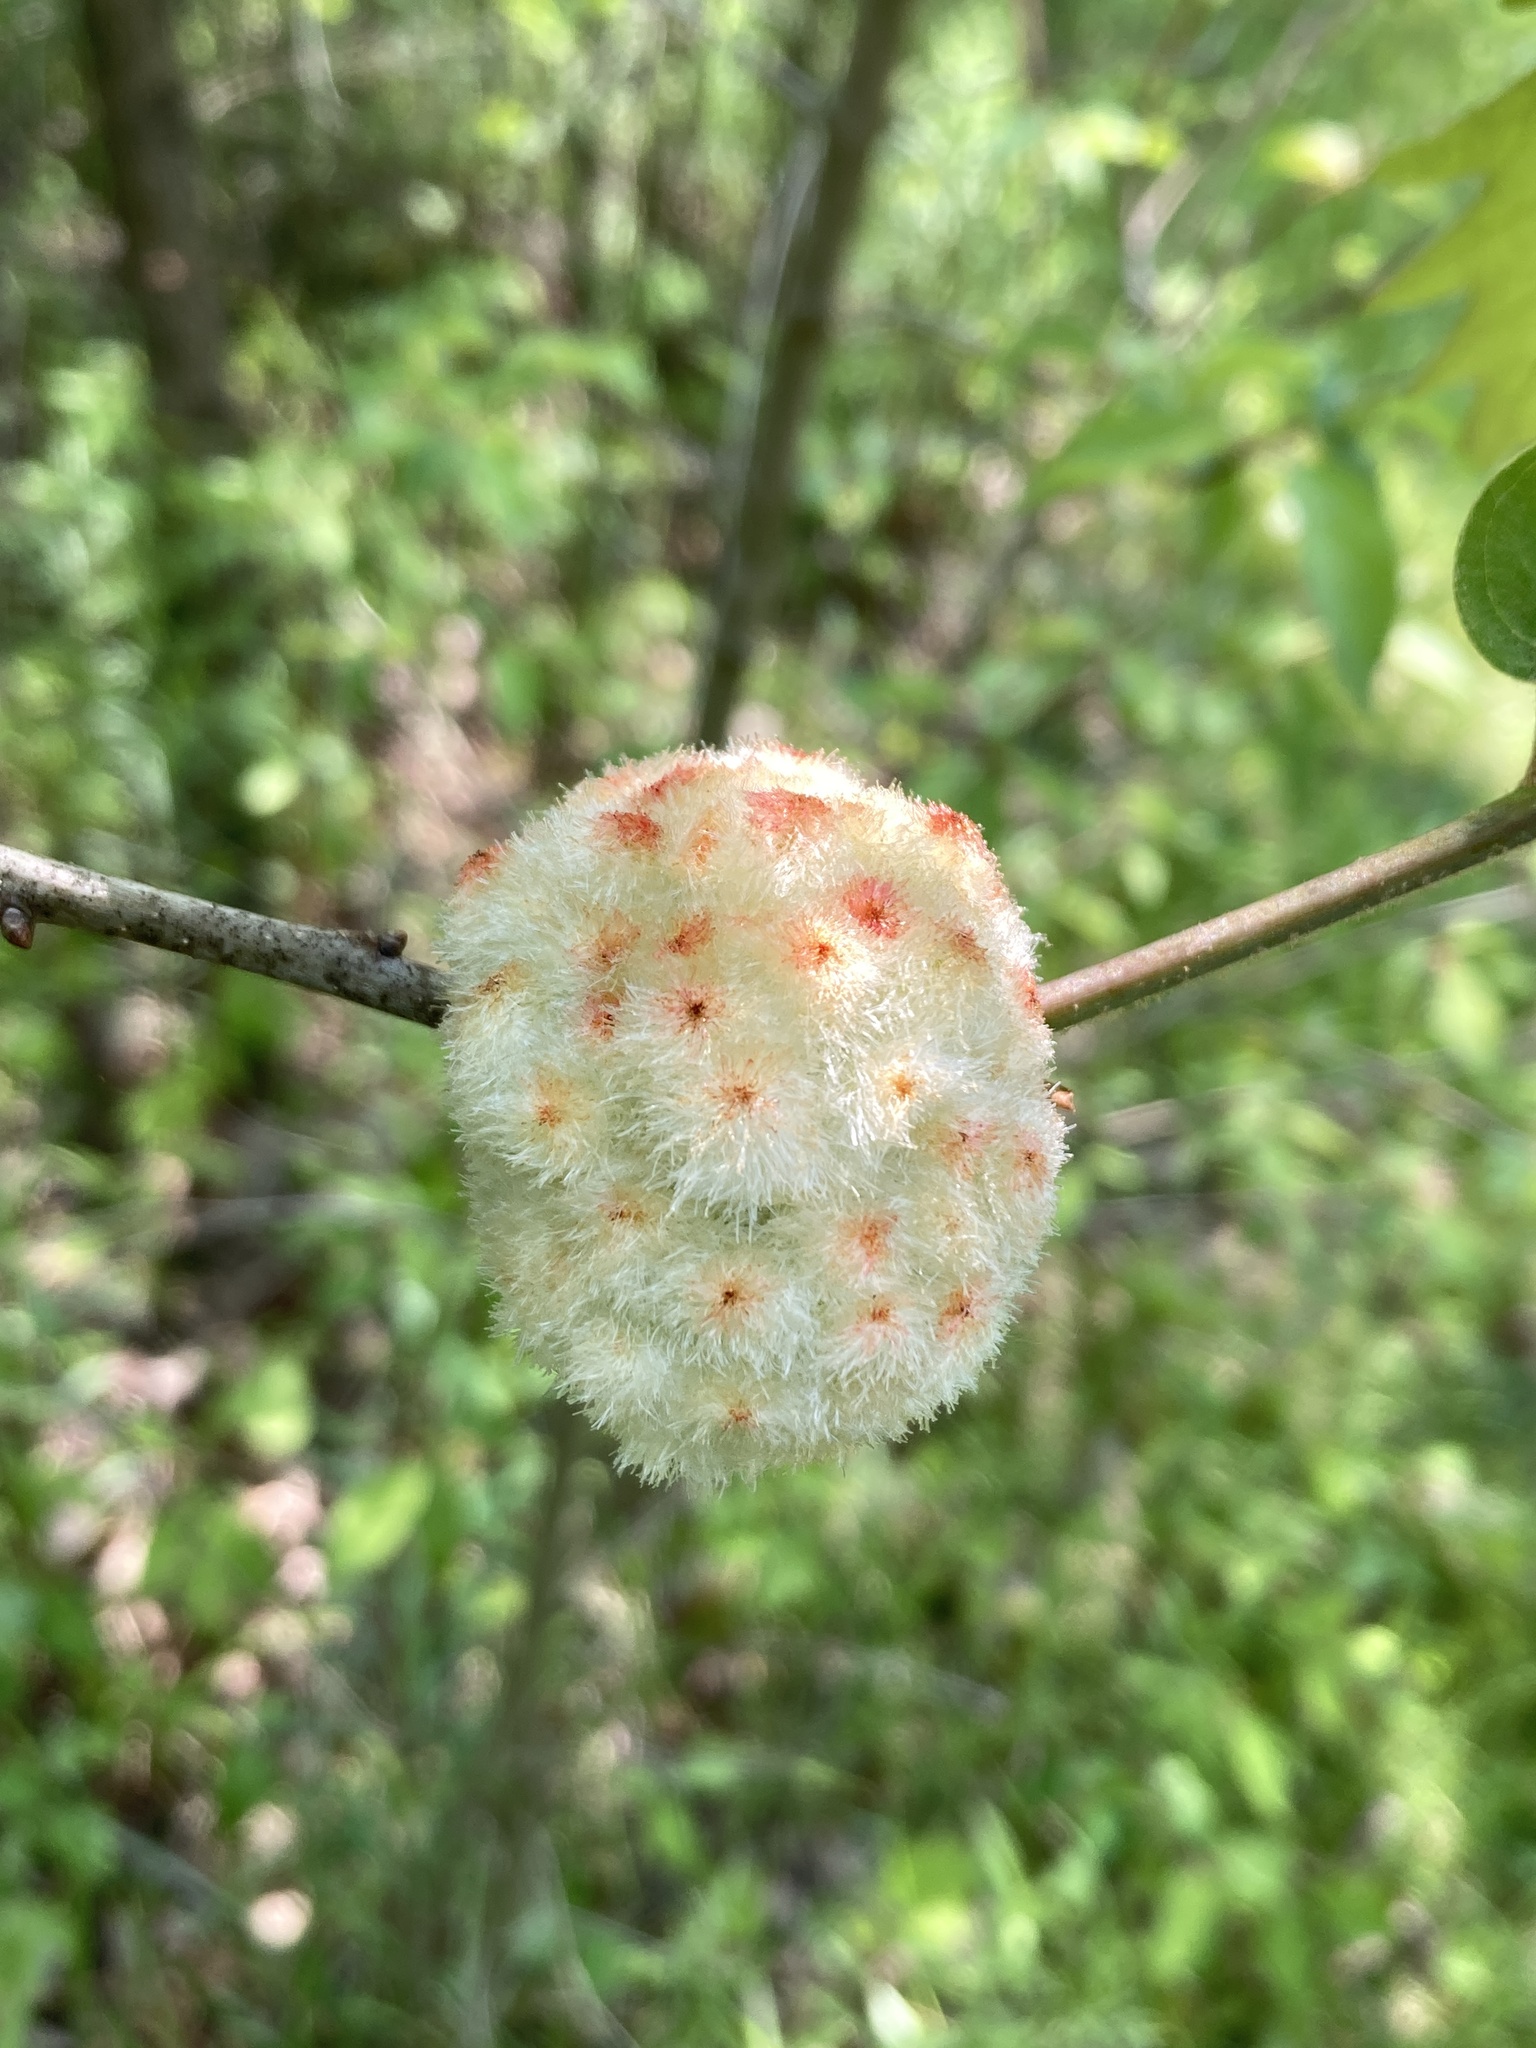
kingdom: Animalia
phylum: Arthropoda
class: Insecta
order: Hymenoptera
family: Cynipidae
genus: Callirhytis
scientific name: Callirhytis
